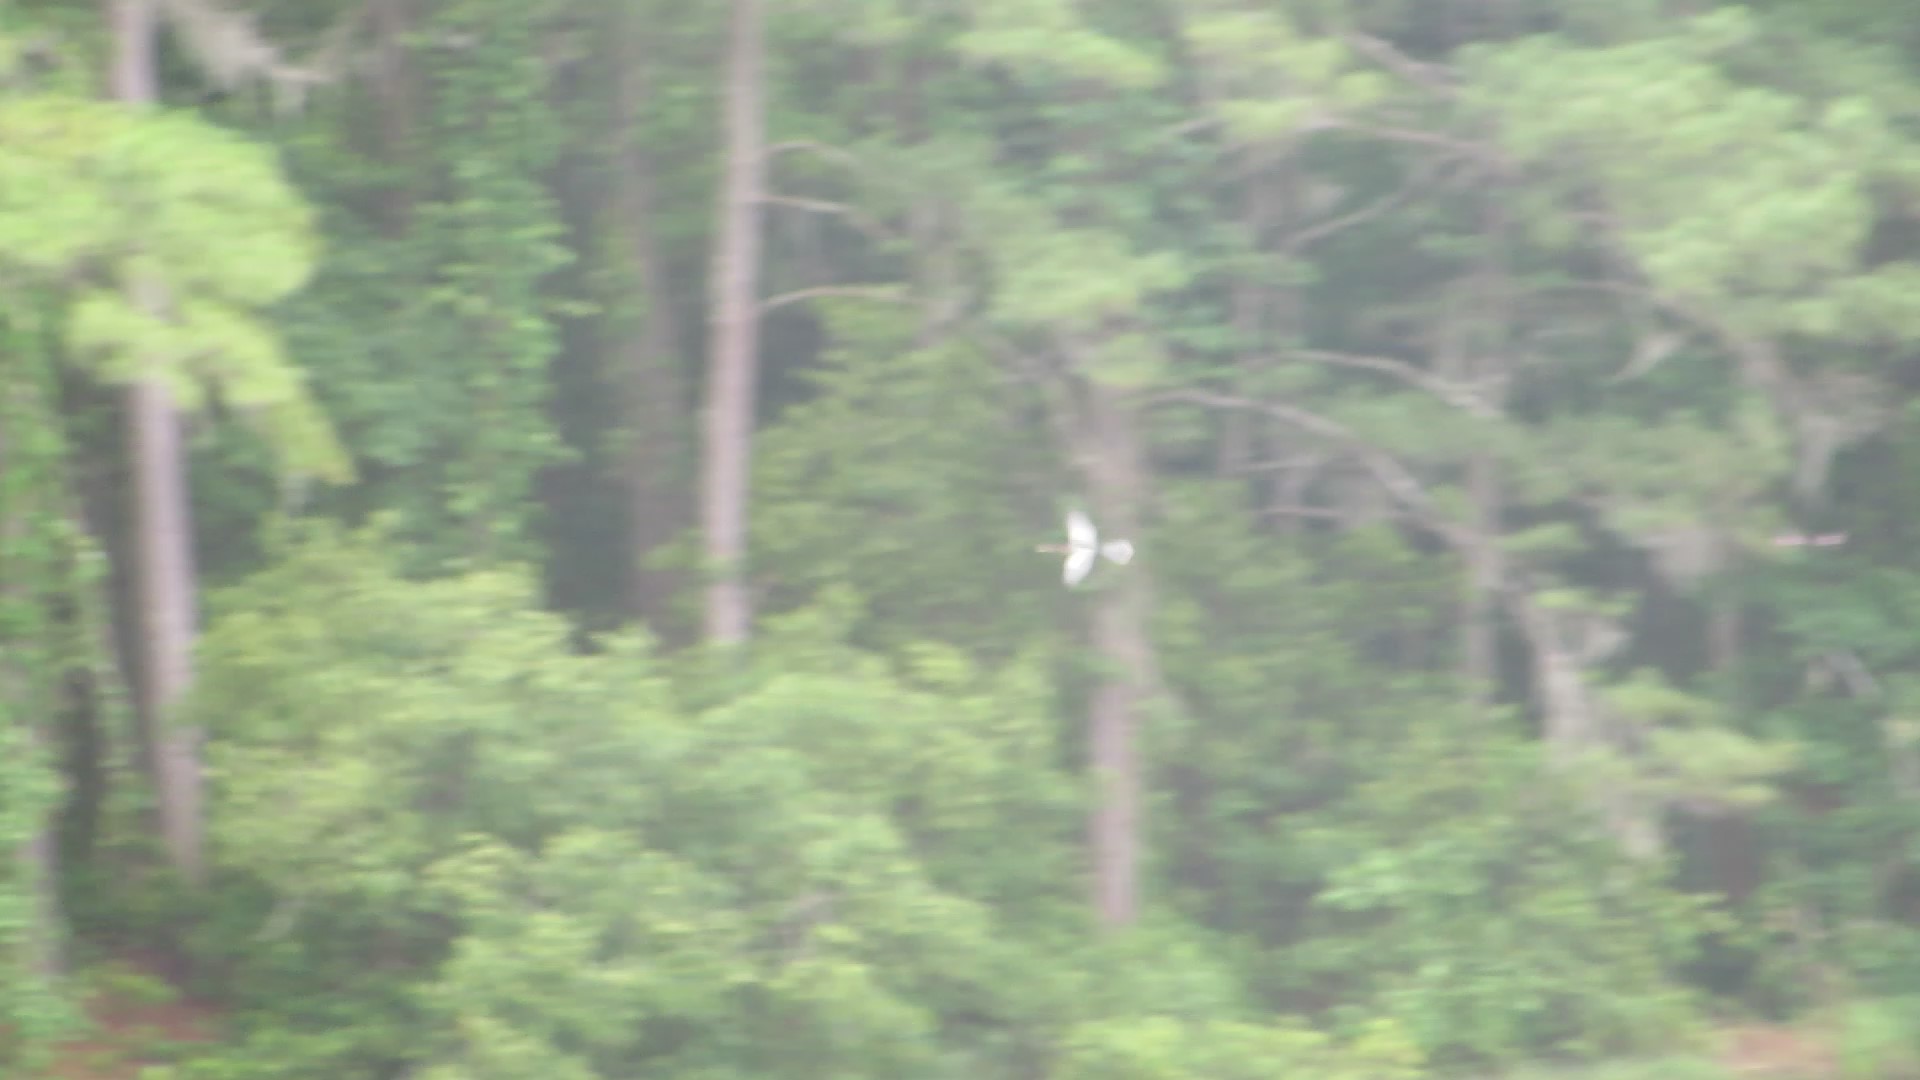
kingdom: Animalia
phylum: Chordata
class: Aves
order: Suliformes
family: Anhingidae
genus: Anhinga
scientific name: Anhinga anhinga
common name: Anhinga
